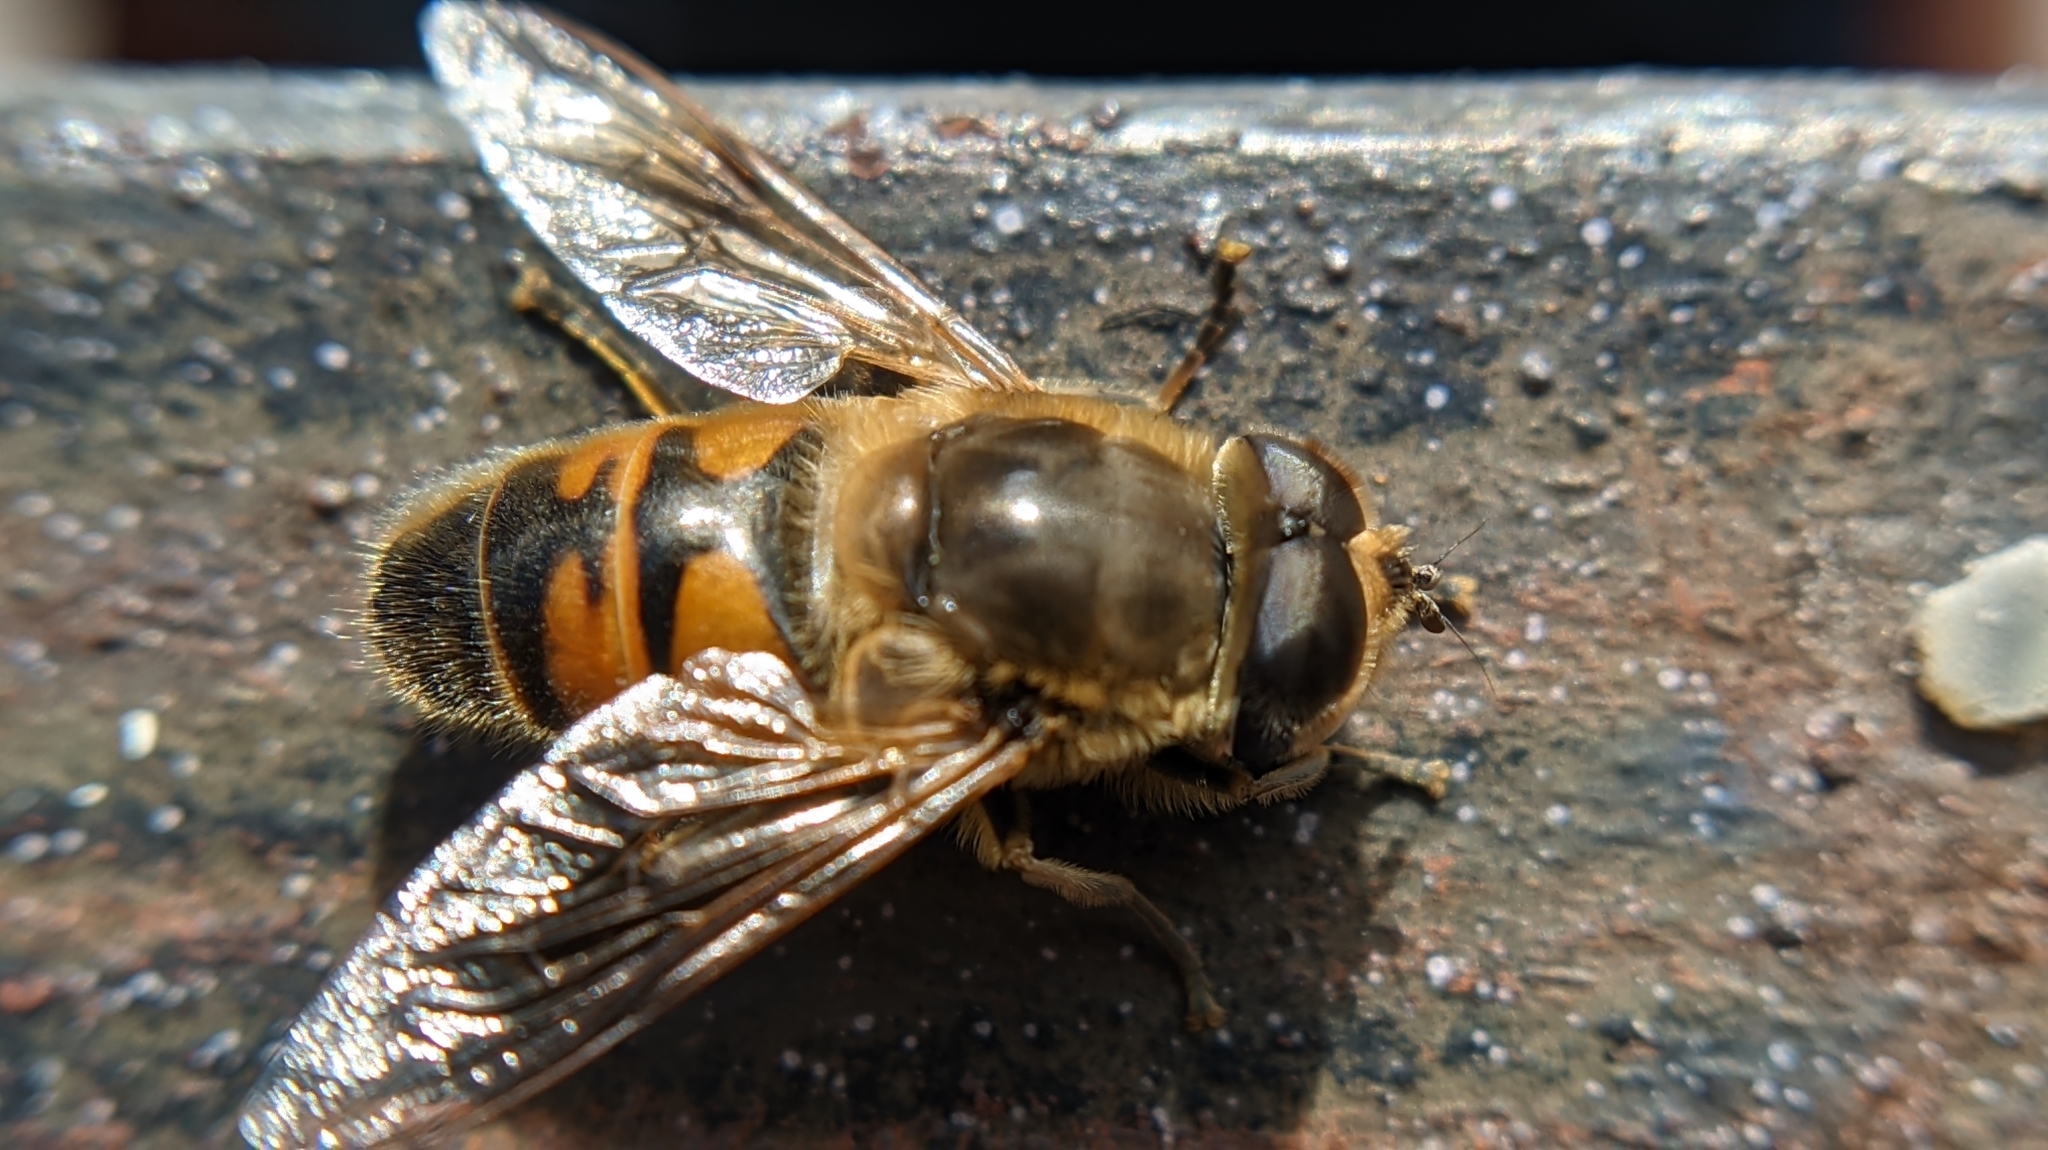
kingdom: Animalia
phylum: Arthropoda
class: Insecta
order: Diptera
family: Syrphidae
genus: Eristalis
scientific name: Eristalis tenax
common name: Drone fly
